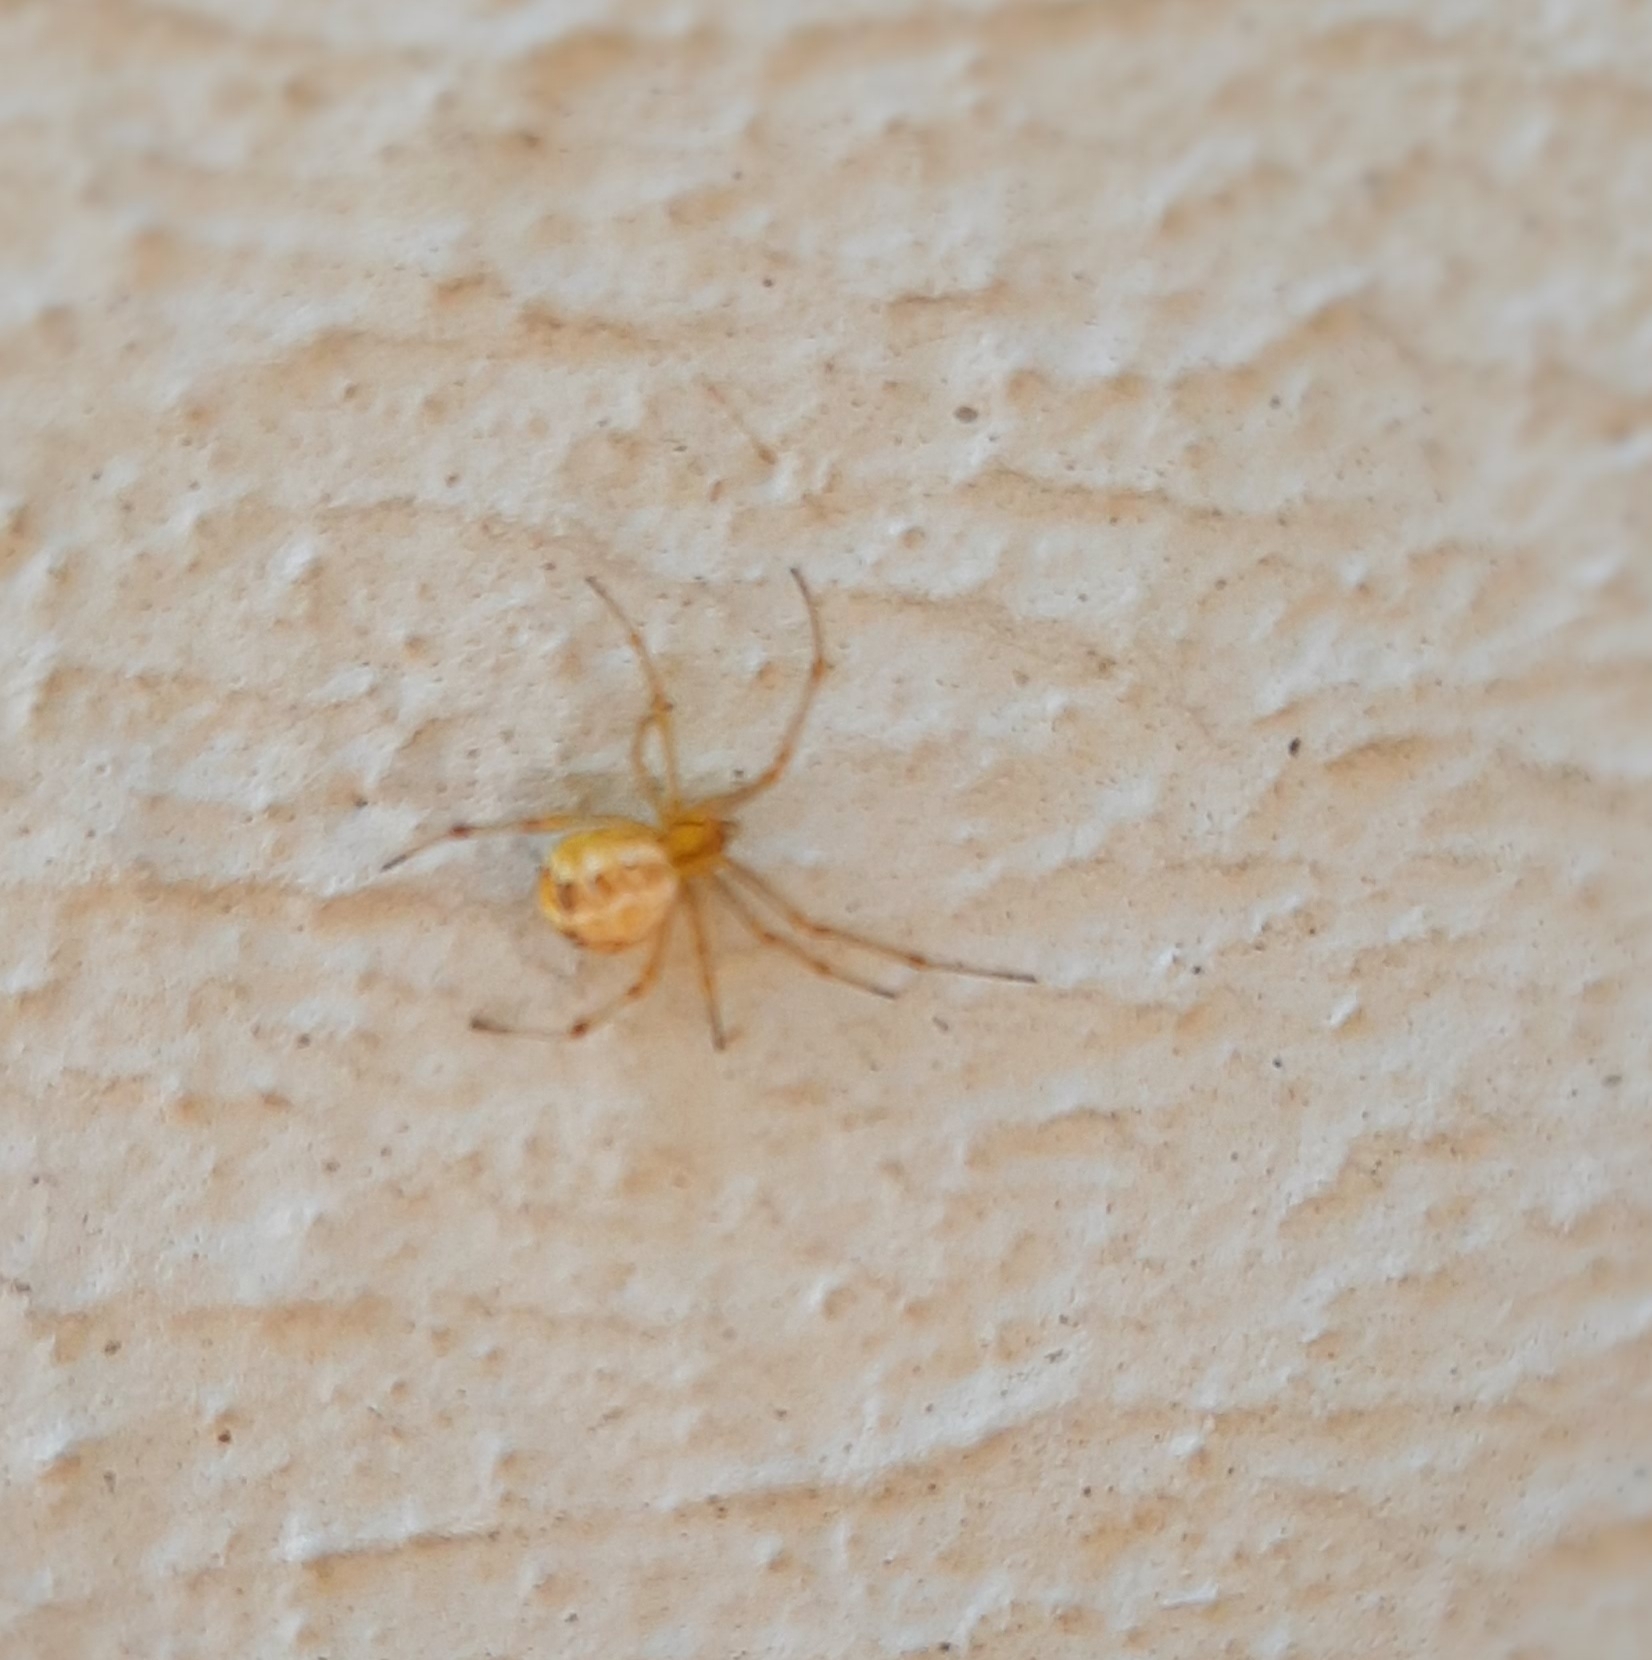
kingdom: Animalia
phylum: Arthropoda
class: Arachnida
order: Araneae
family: Theridiidae
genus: Theridion
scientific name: Theridion
